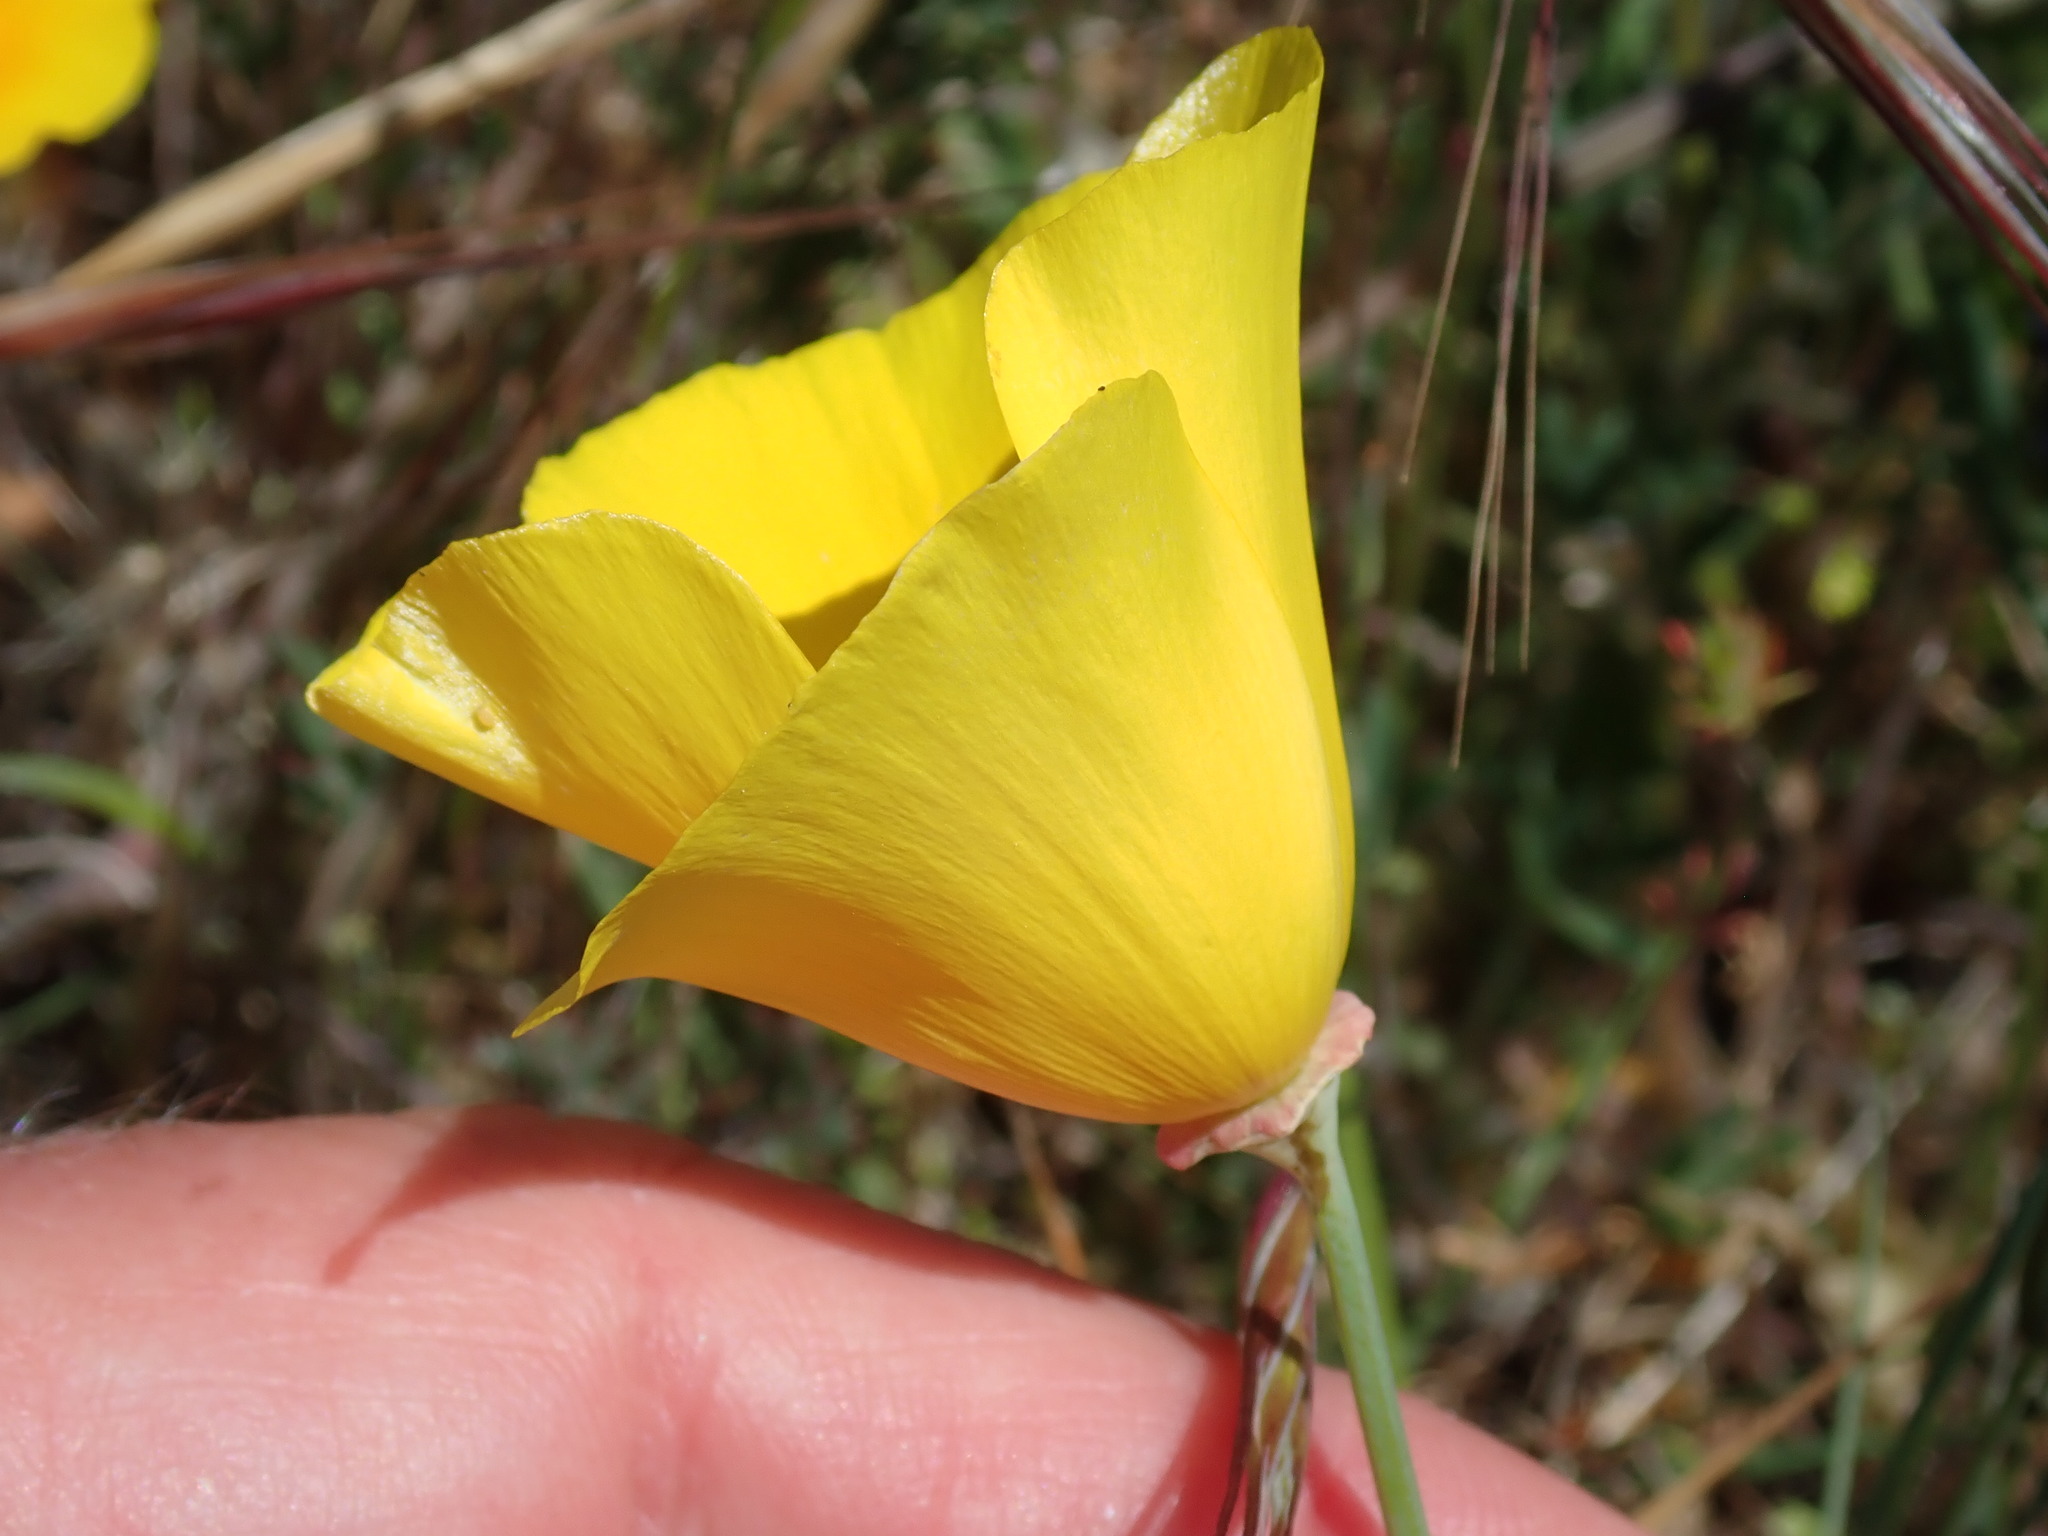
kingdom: Plantae
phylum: Tracheophyta
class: Magnoliopsida
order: Ranunculales
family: Papaveraceae
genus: Eschscholzia
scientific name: Eschscholzia californica
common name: California poppy
